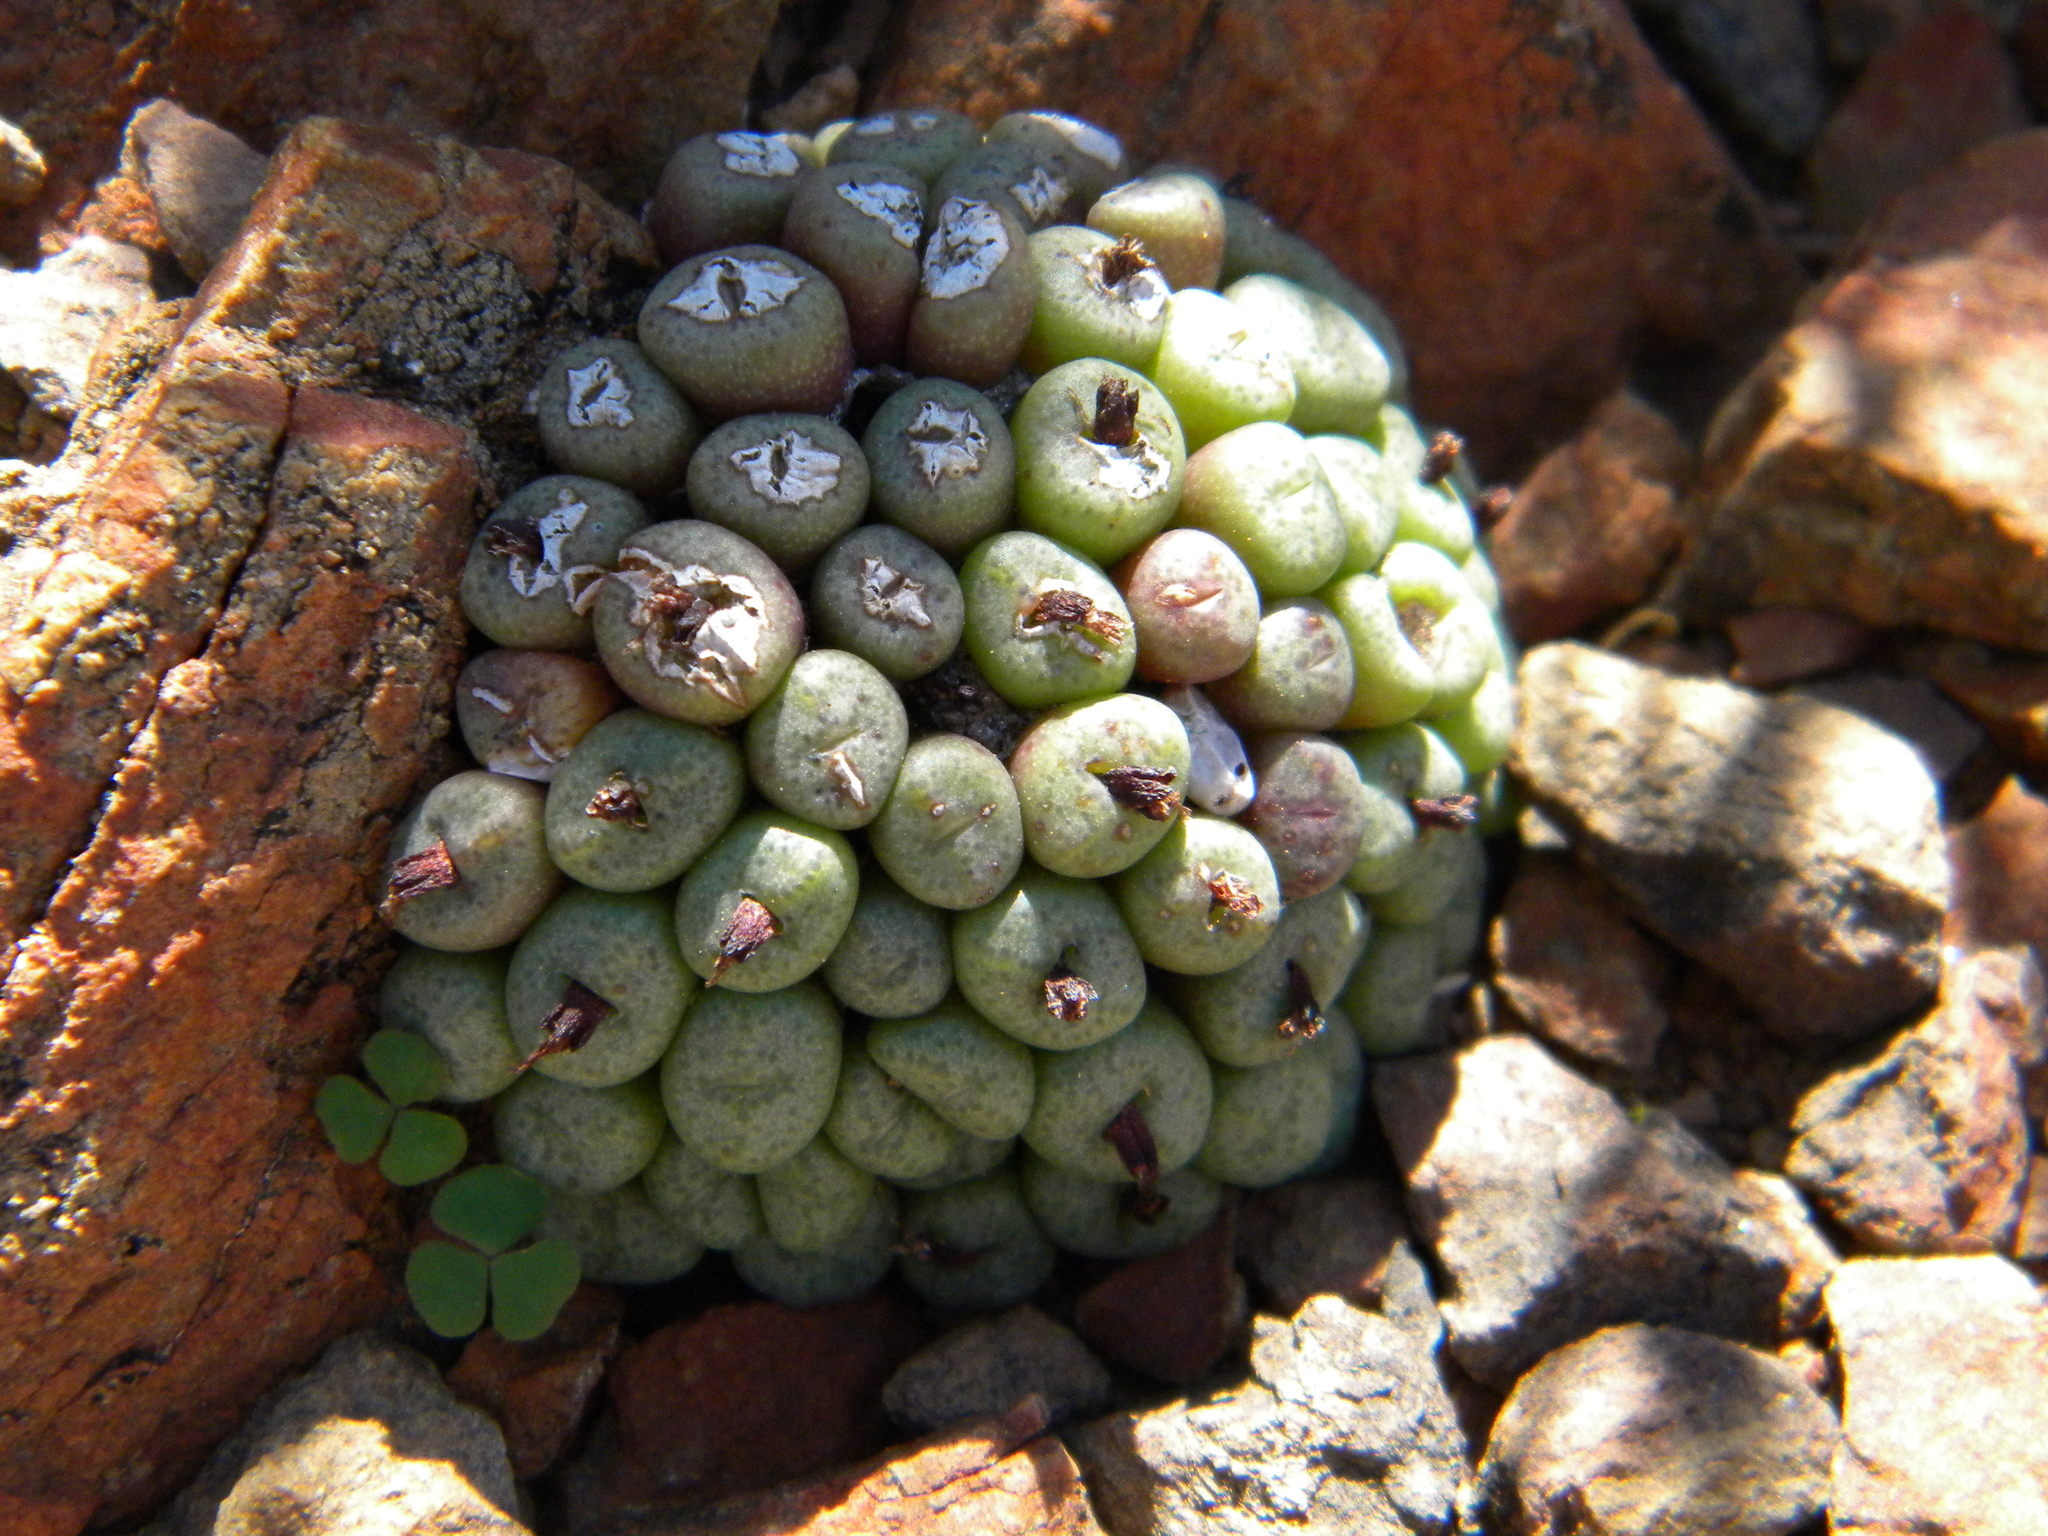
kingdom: Plantae
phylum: Tracheophyta
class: Magnoliopsida
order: Caryophyllales
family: Aizoaceae
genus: Conophytum
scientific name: Conophytum truncatum
